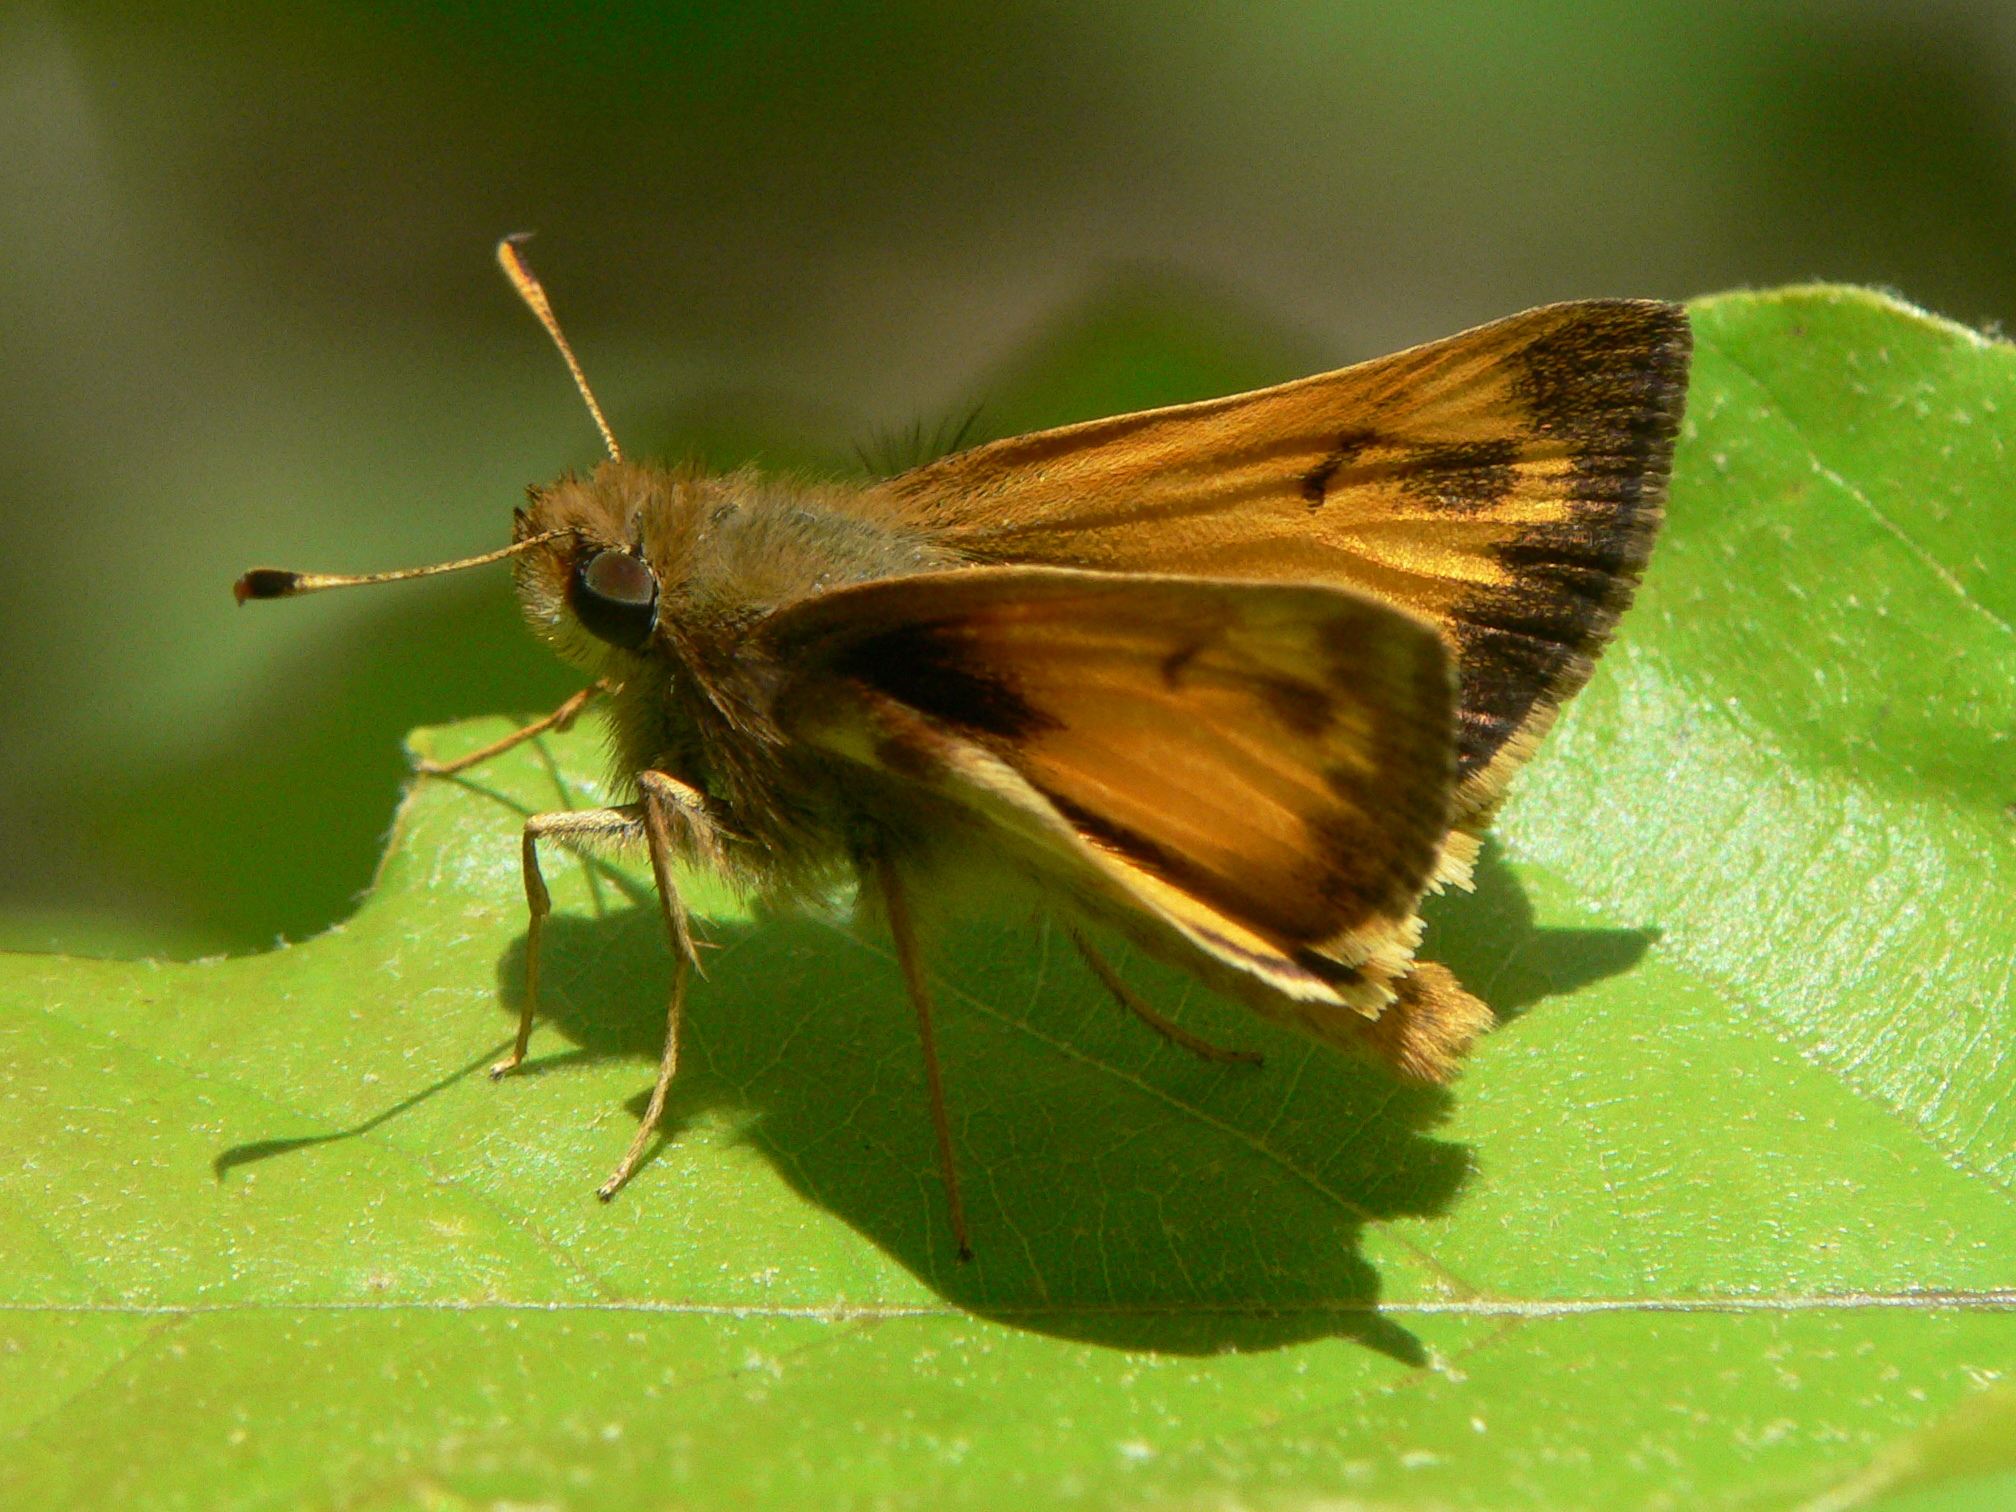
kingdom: Animalia
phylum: Arthropoda
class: Insecta
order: Lepidoptera
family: Hesperiidae
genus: Lon
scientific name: Lon zabulon
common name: Zabulon skipper
